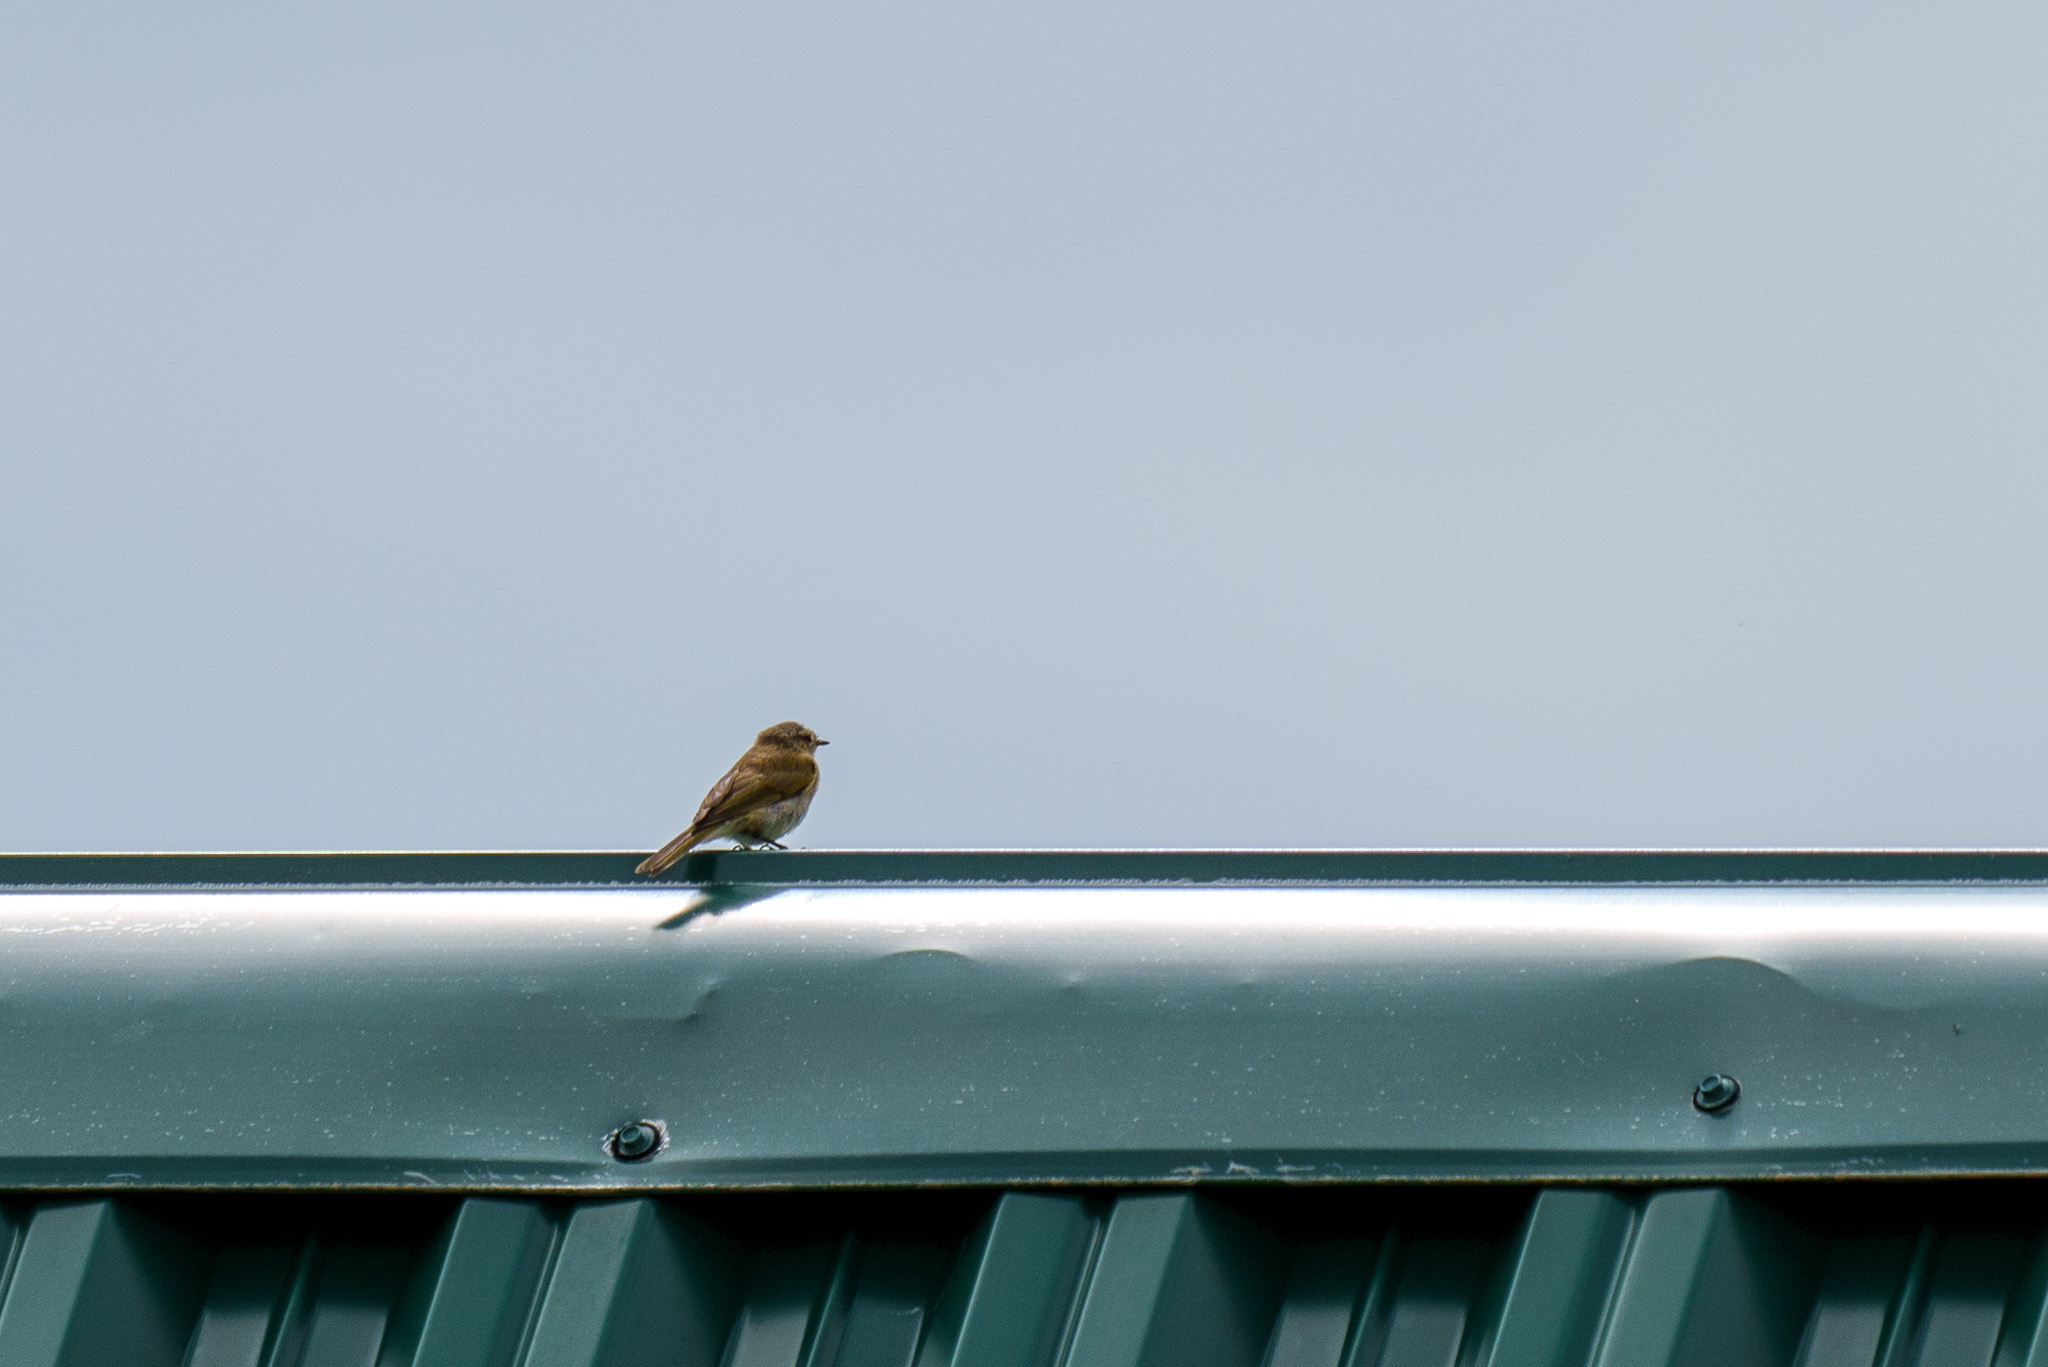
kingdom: Animalia
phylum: Chordata
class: Aves
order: Passeriformes
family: Fringillidae
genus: Linaria
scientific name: Linaria cannabina
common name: Common linnet
